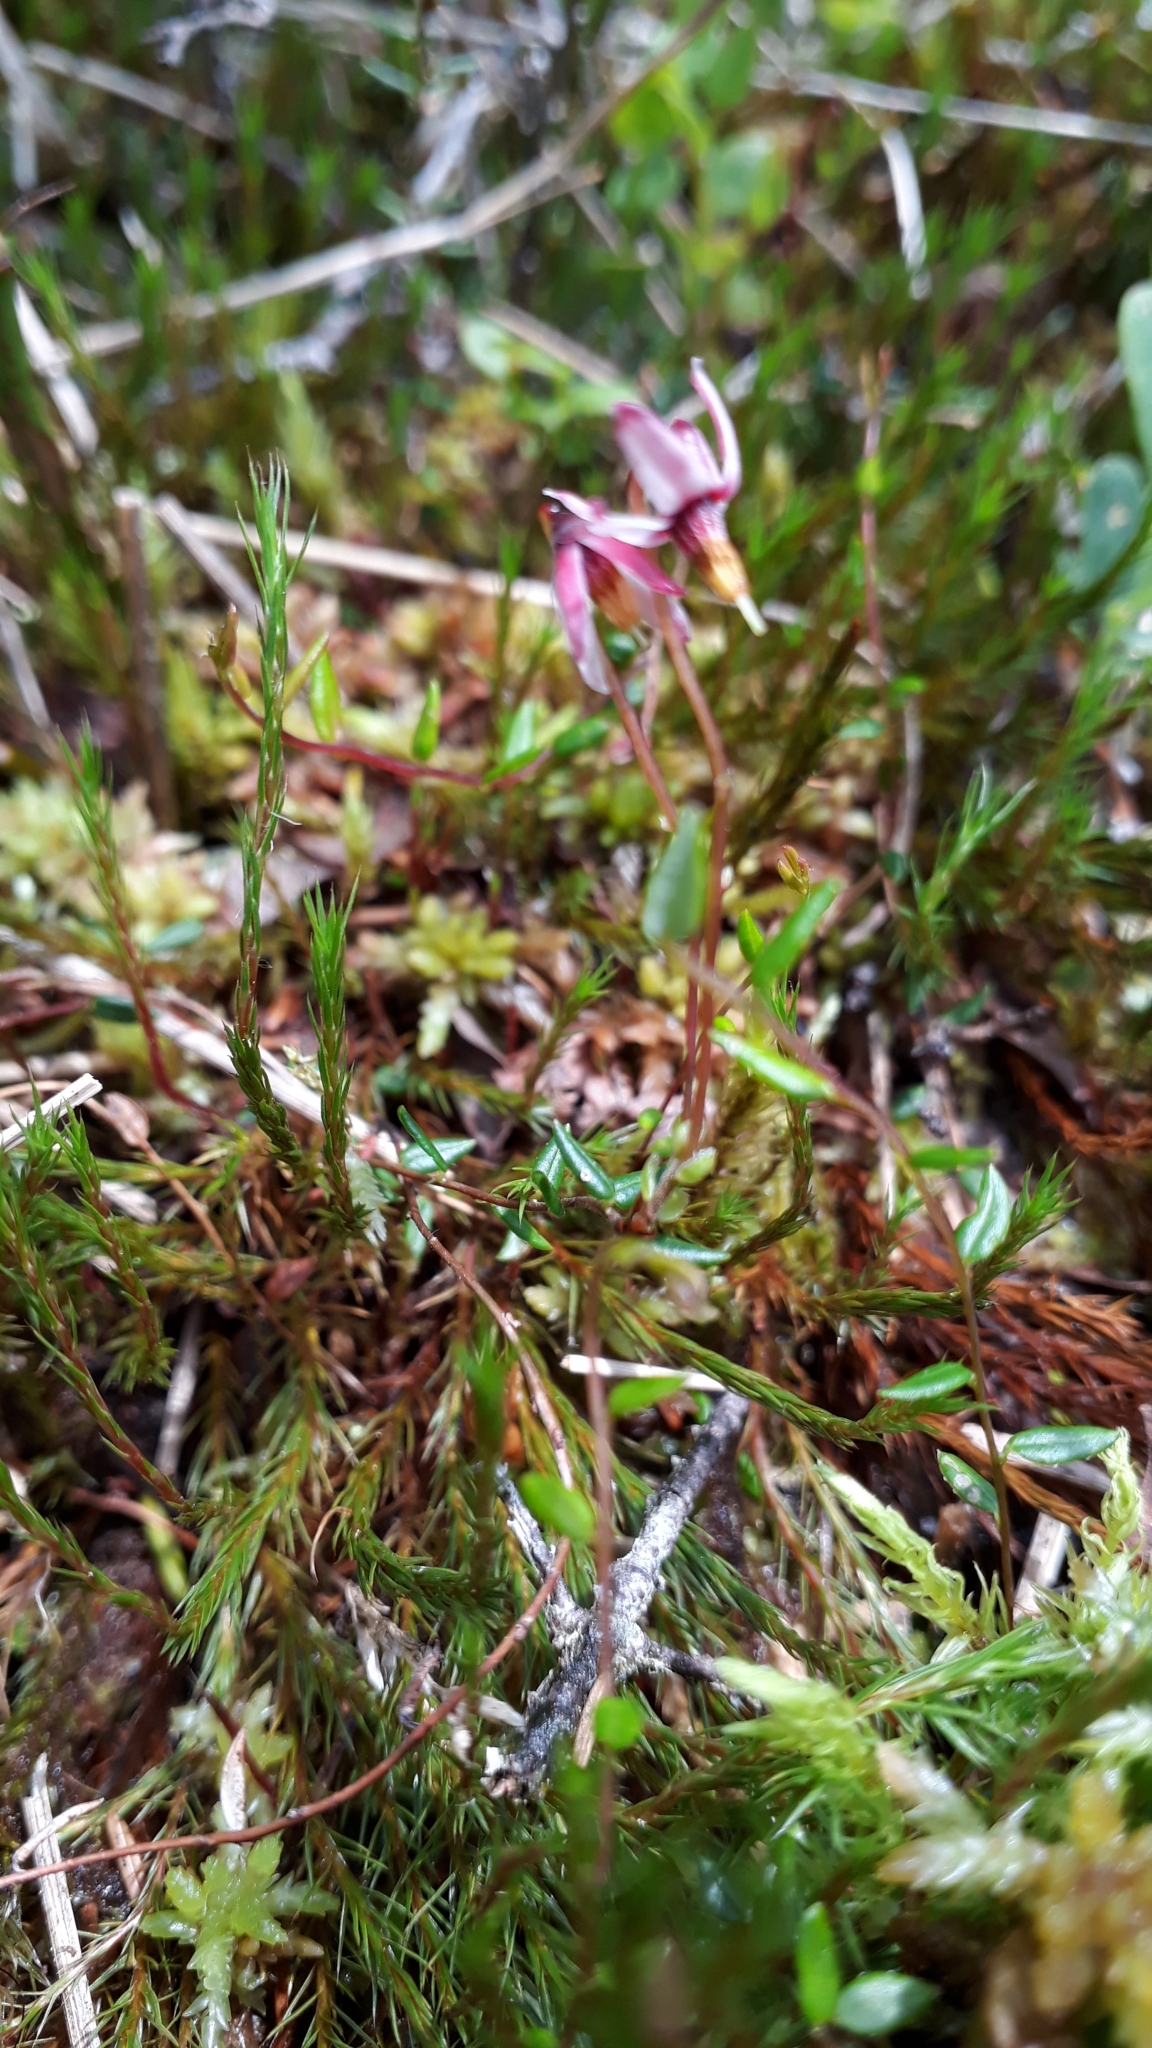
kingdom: Plantae
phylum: Tracheophyta
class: Magnoliopsida
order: Ericales
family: Ericaceae
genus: Vaccinium
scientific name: Vaccinium microcarpum
